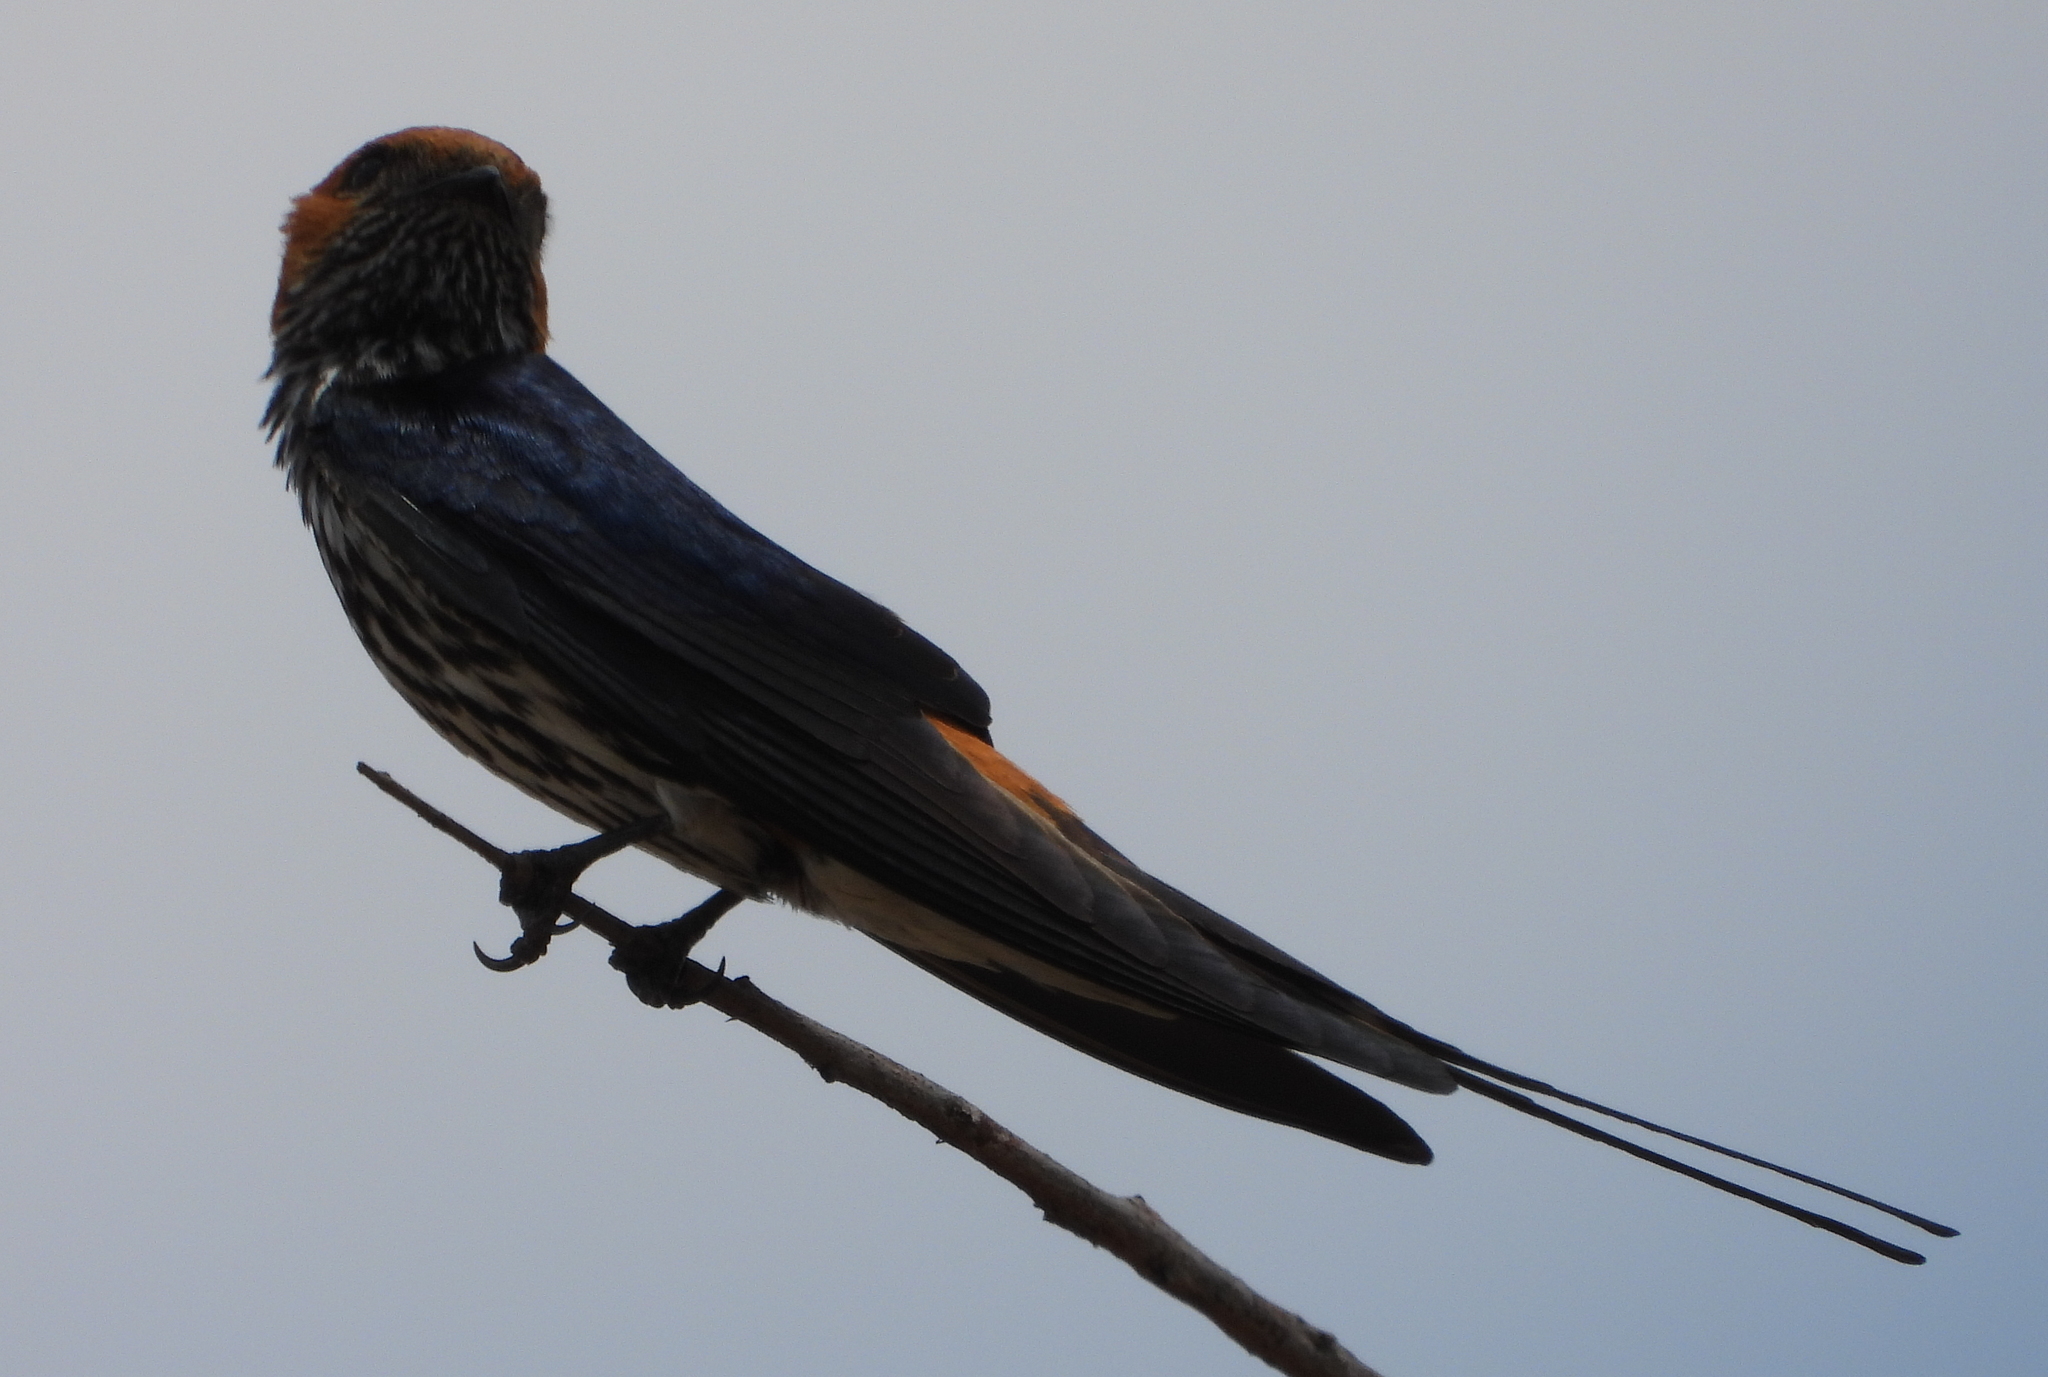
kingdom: Animalia
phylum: Chordata
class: Aves
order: Passeriformes
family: Hirundinidae
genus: Cecropis
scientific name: Cecropis abyssinica
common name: Lesser striped-swallow
